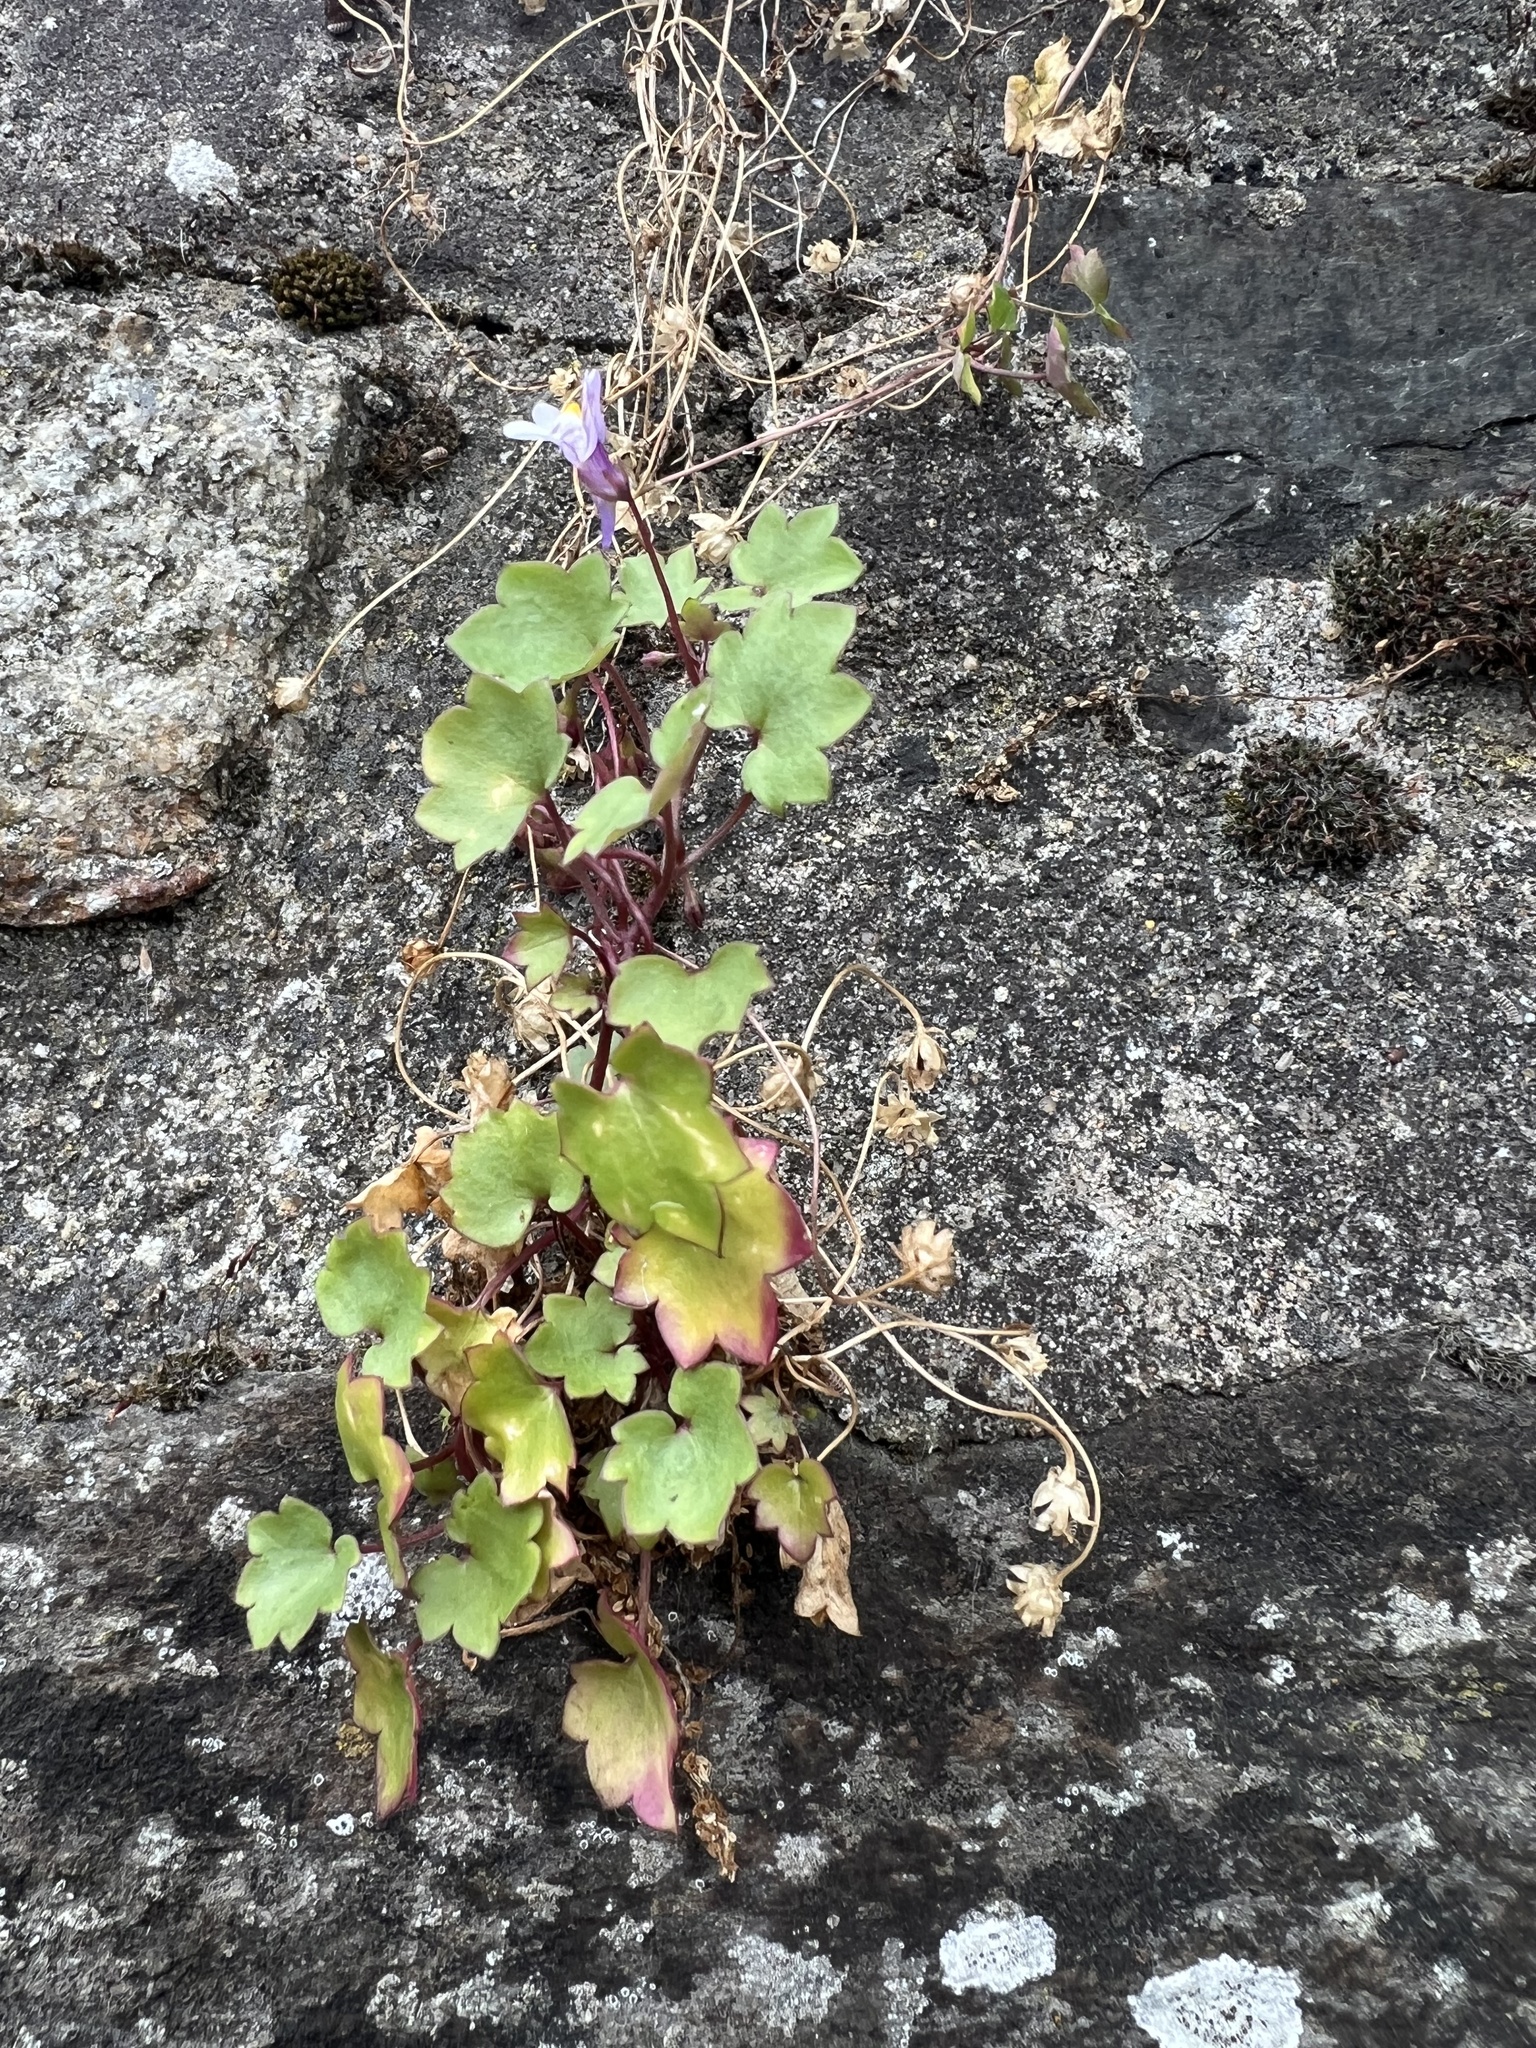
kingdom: Plantae
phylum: Tracheophyta
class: Magnoliopsida
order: Lamiales
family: Plantaginaceae
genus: Cymbalaria
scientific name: Cymbalaria muralis
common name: Ivy-leaved toadflax
